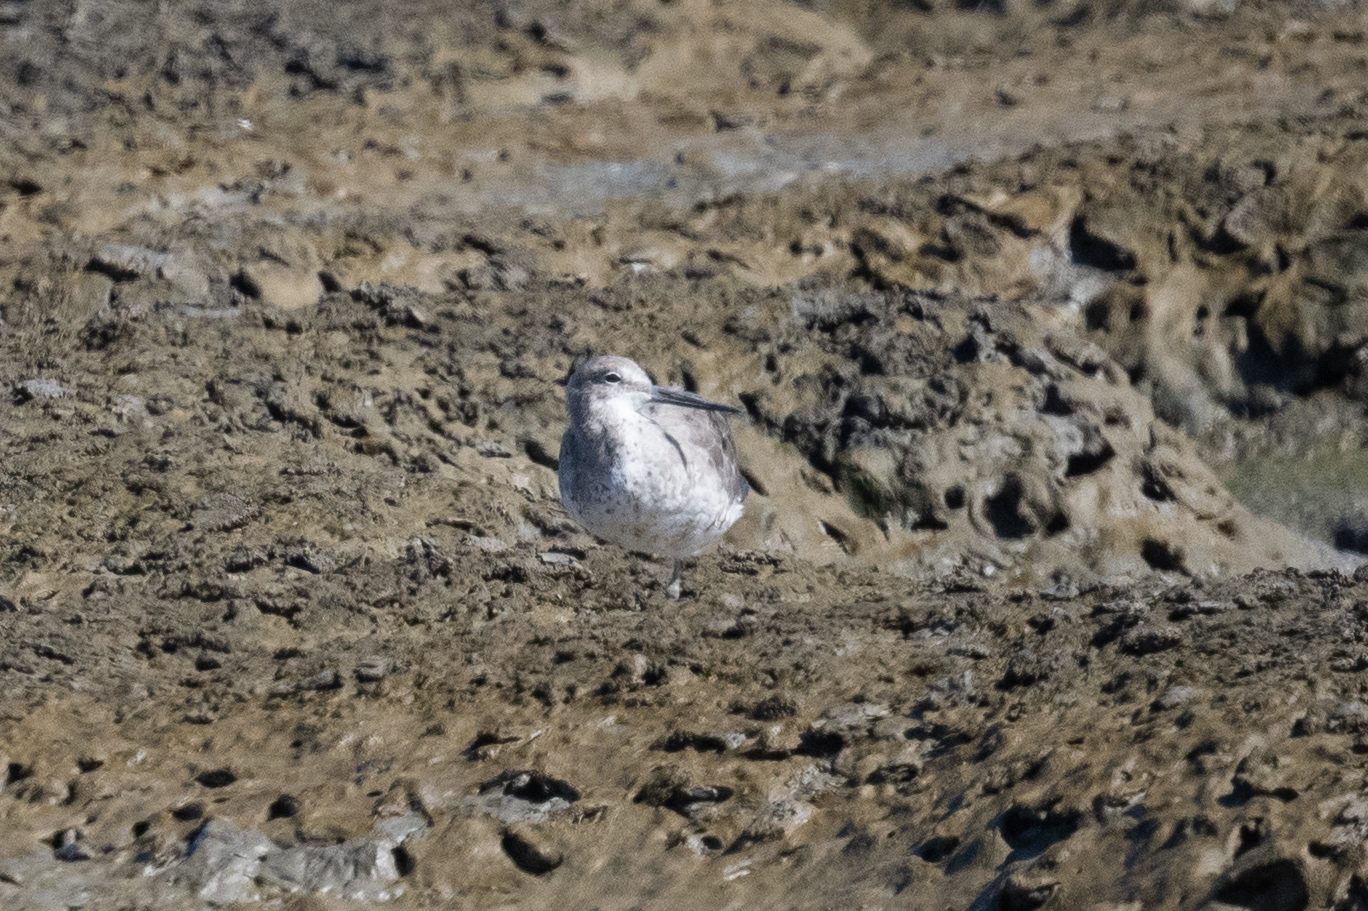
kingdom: Animalia
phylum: Chordata
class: Aves
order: Charadriiformes
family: Scolopacidae
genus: Tringa
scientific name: Tringa semipalmata
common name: Willet
